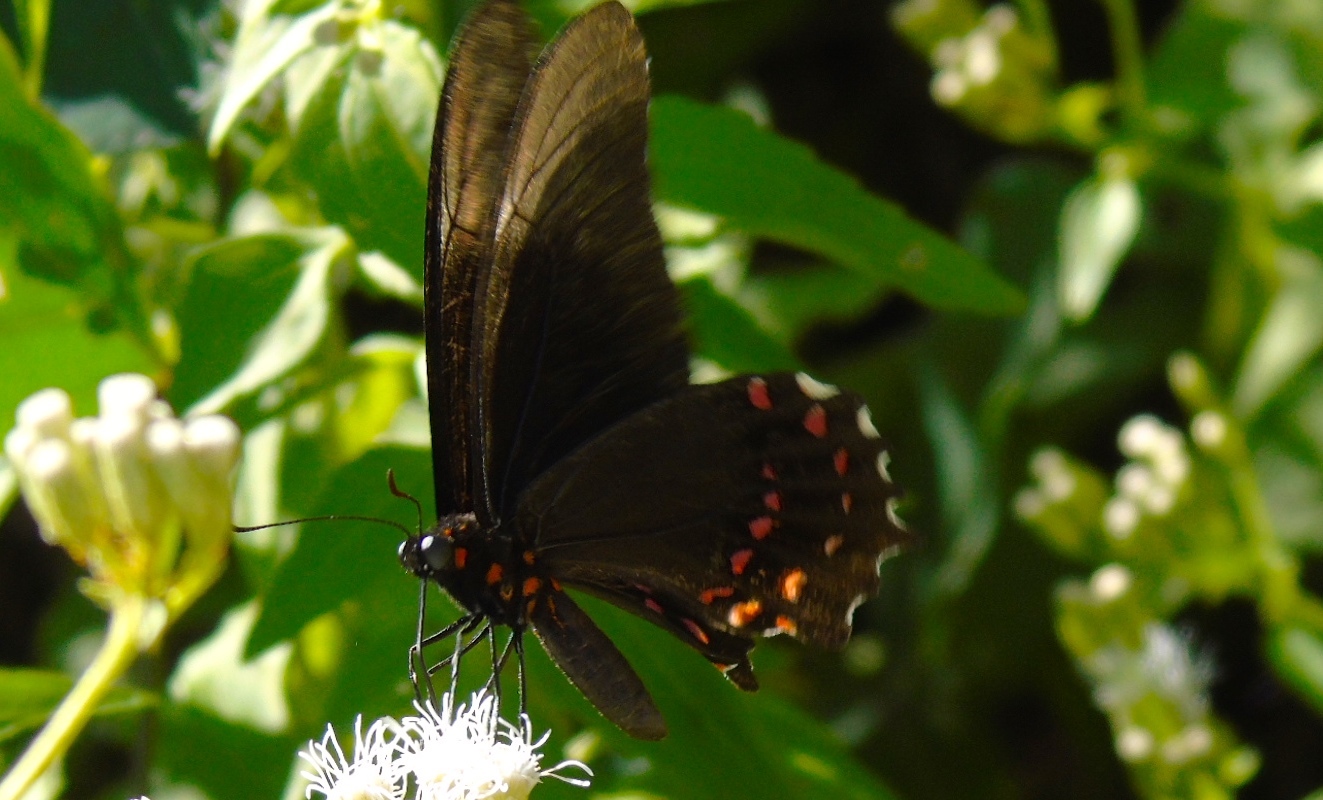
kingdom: Animalia
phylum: Arthropoda
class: Insecta
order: Lepidoptera
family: Papilionidae
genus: Heraclides
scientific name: Heraclides rogeri
